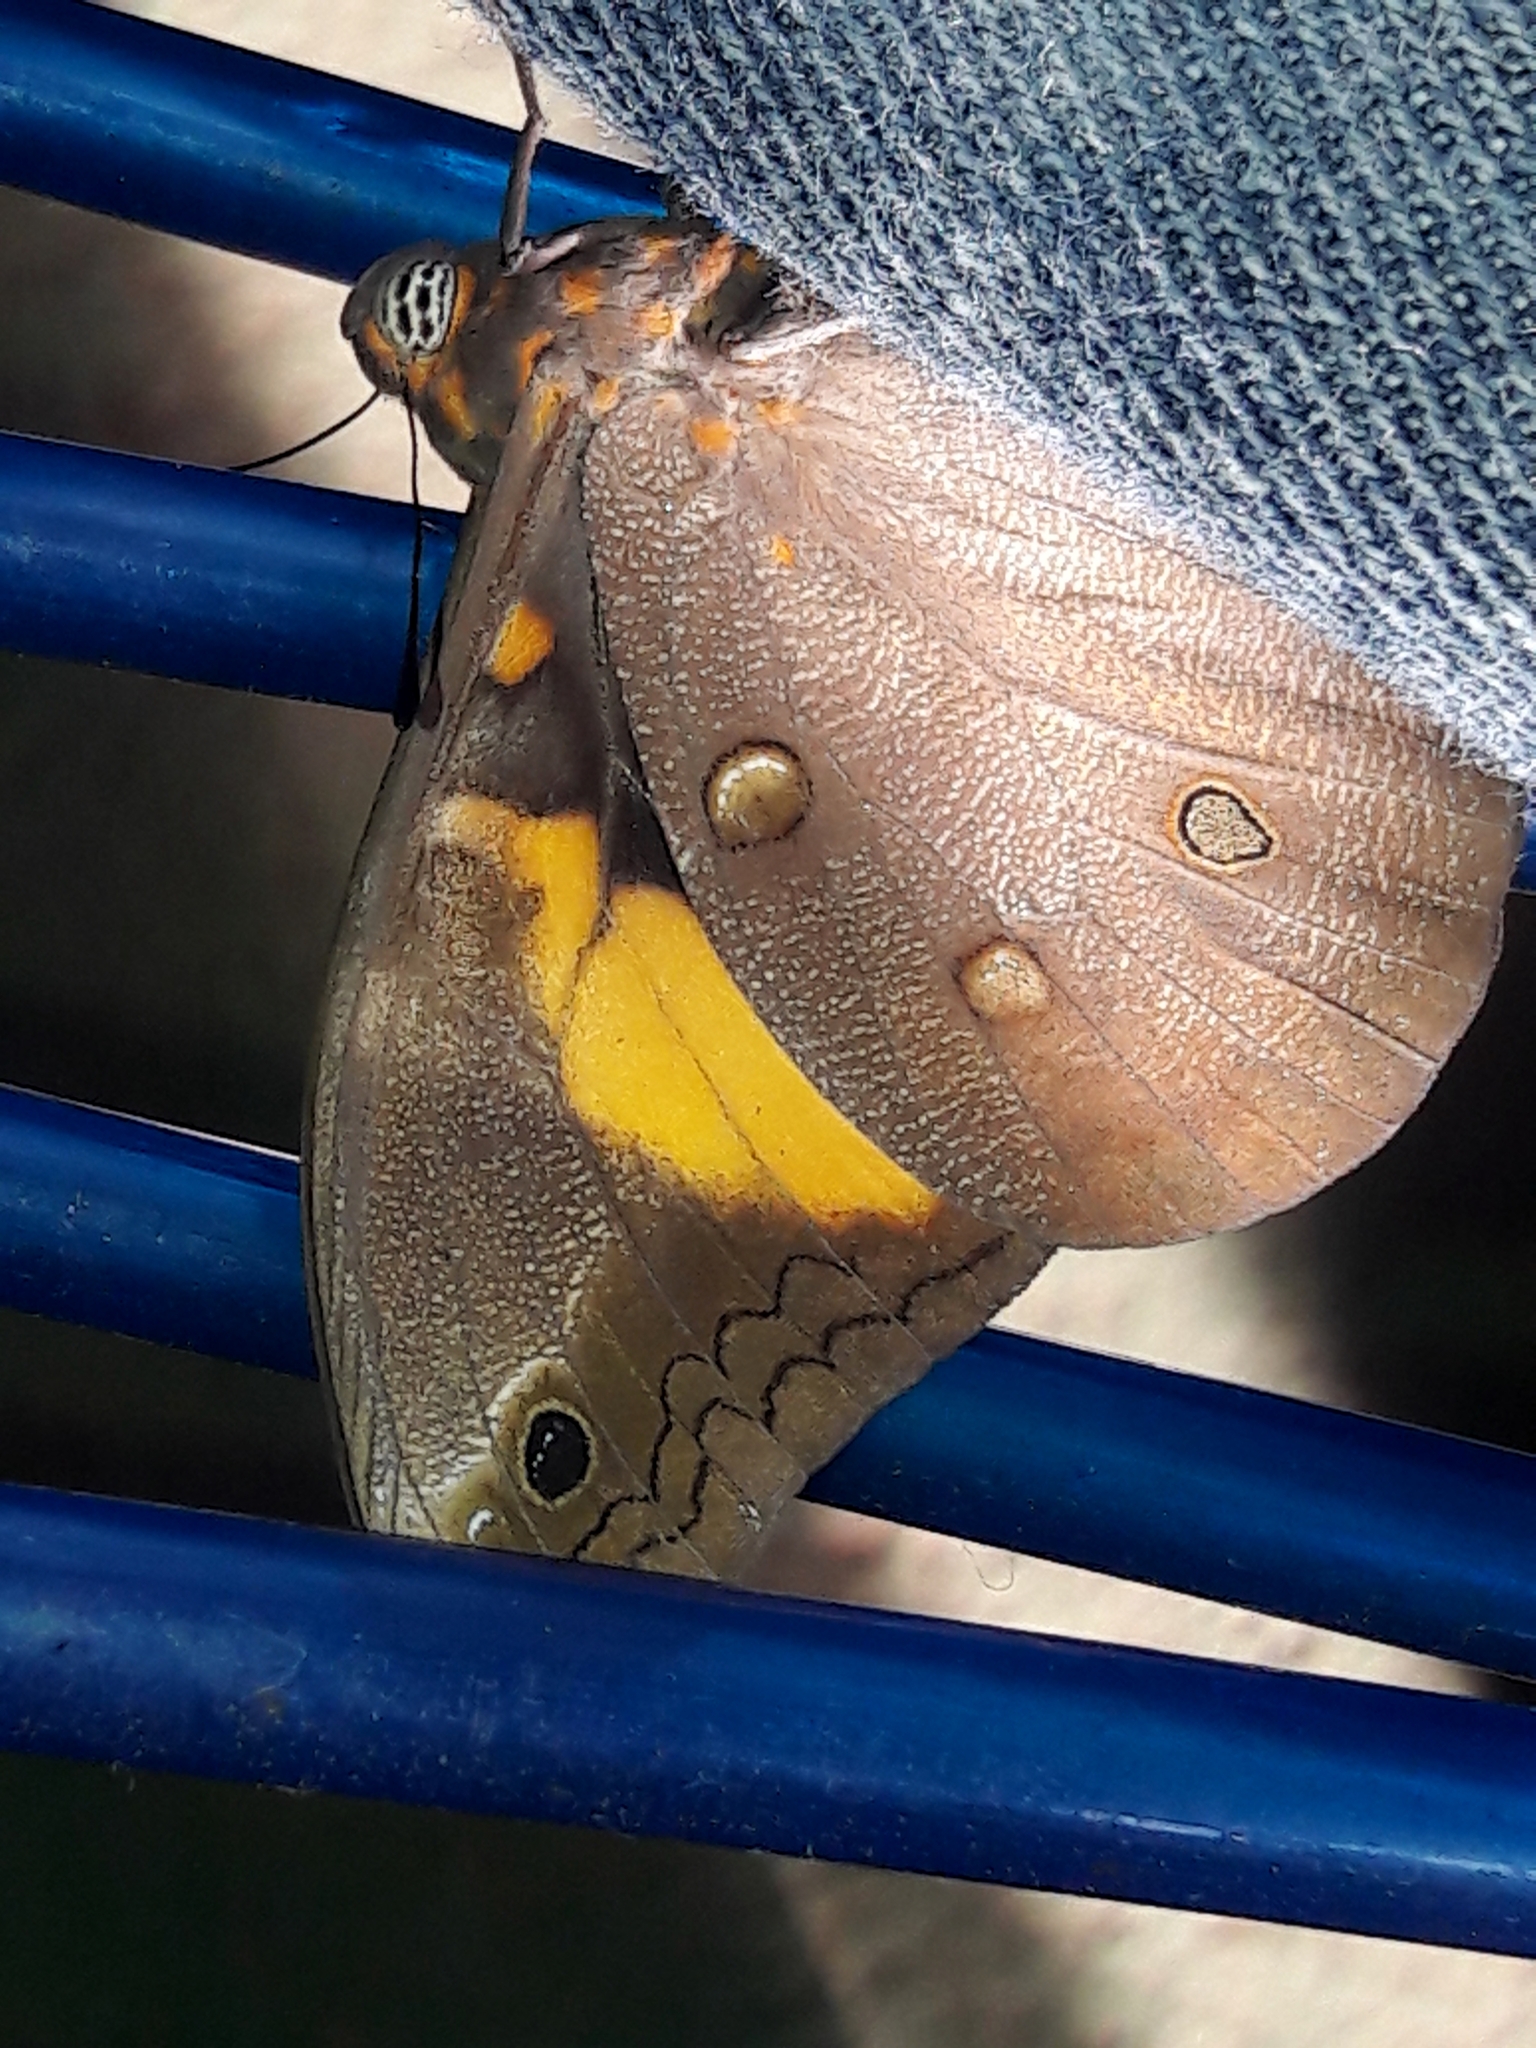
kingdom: Animalia
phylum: Arthropoda
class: Insecta
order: Lepidoptera
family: Nymphalidae
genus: Brassolis
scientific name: Brassolis sophorae
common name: Coconut caterpillar
